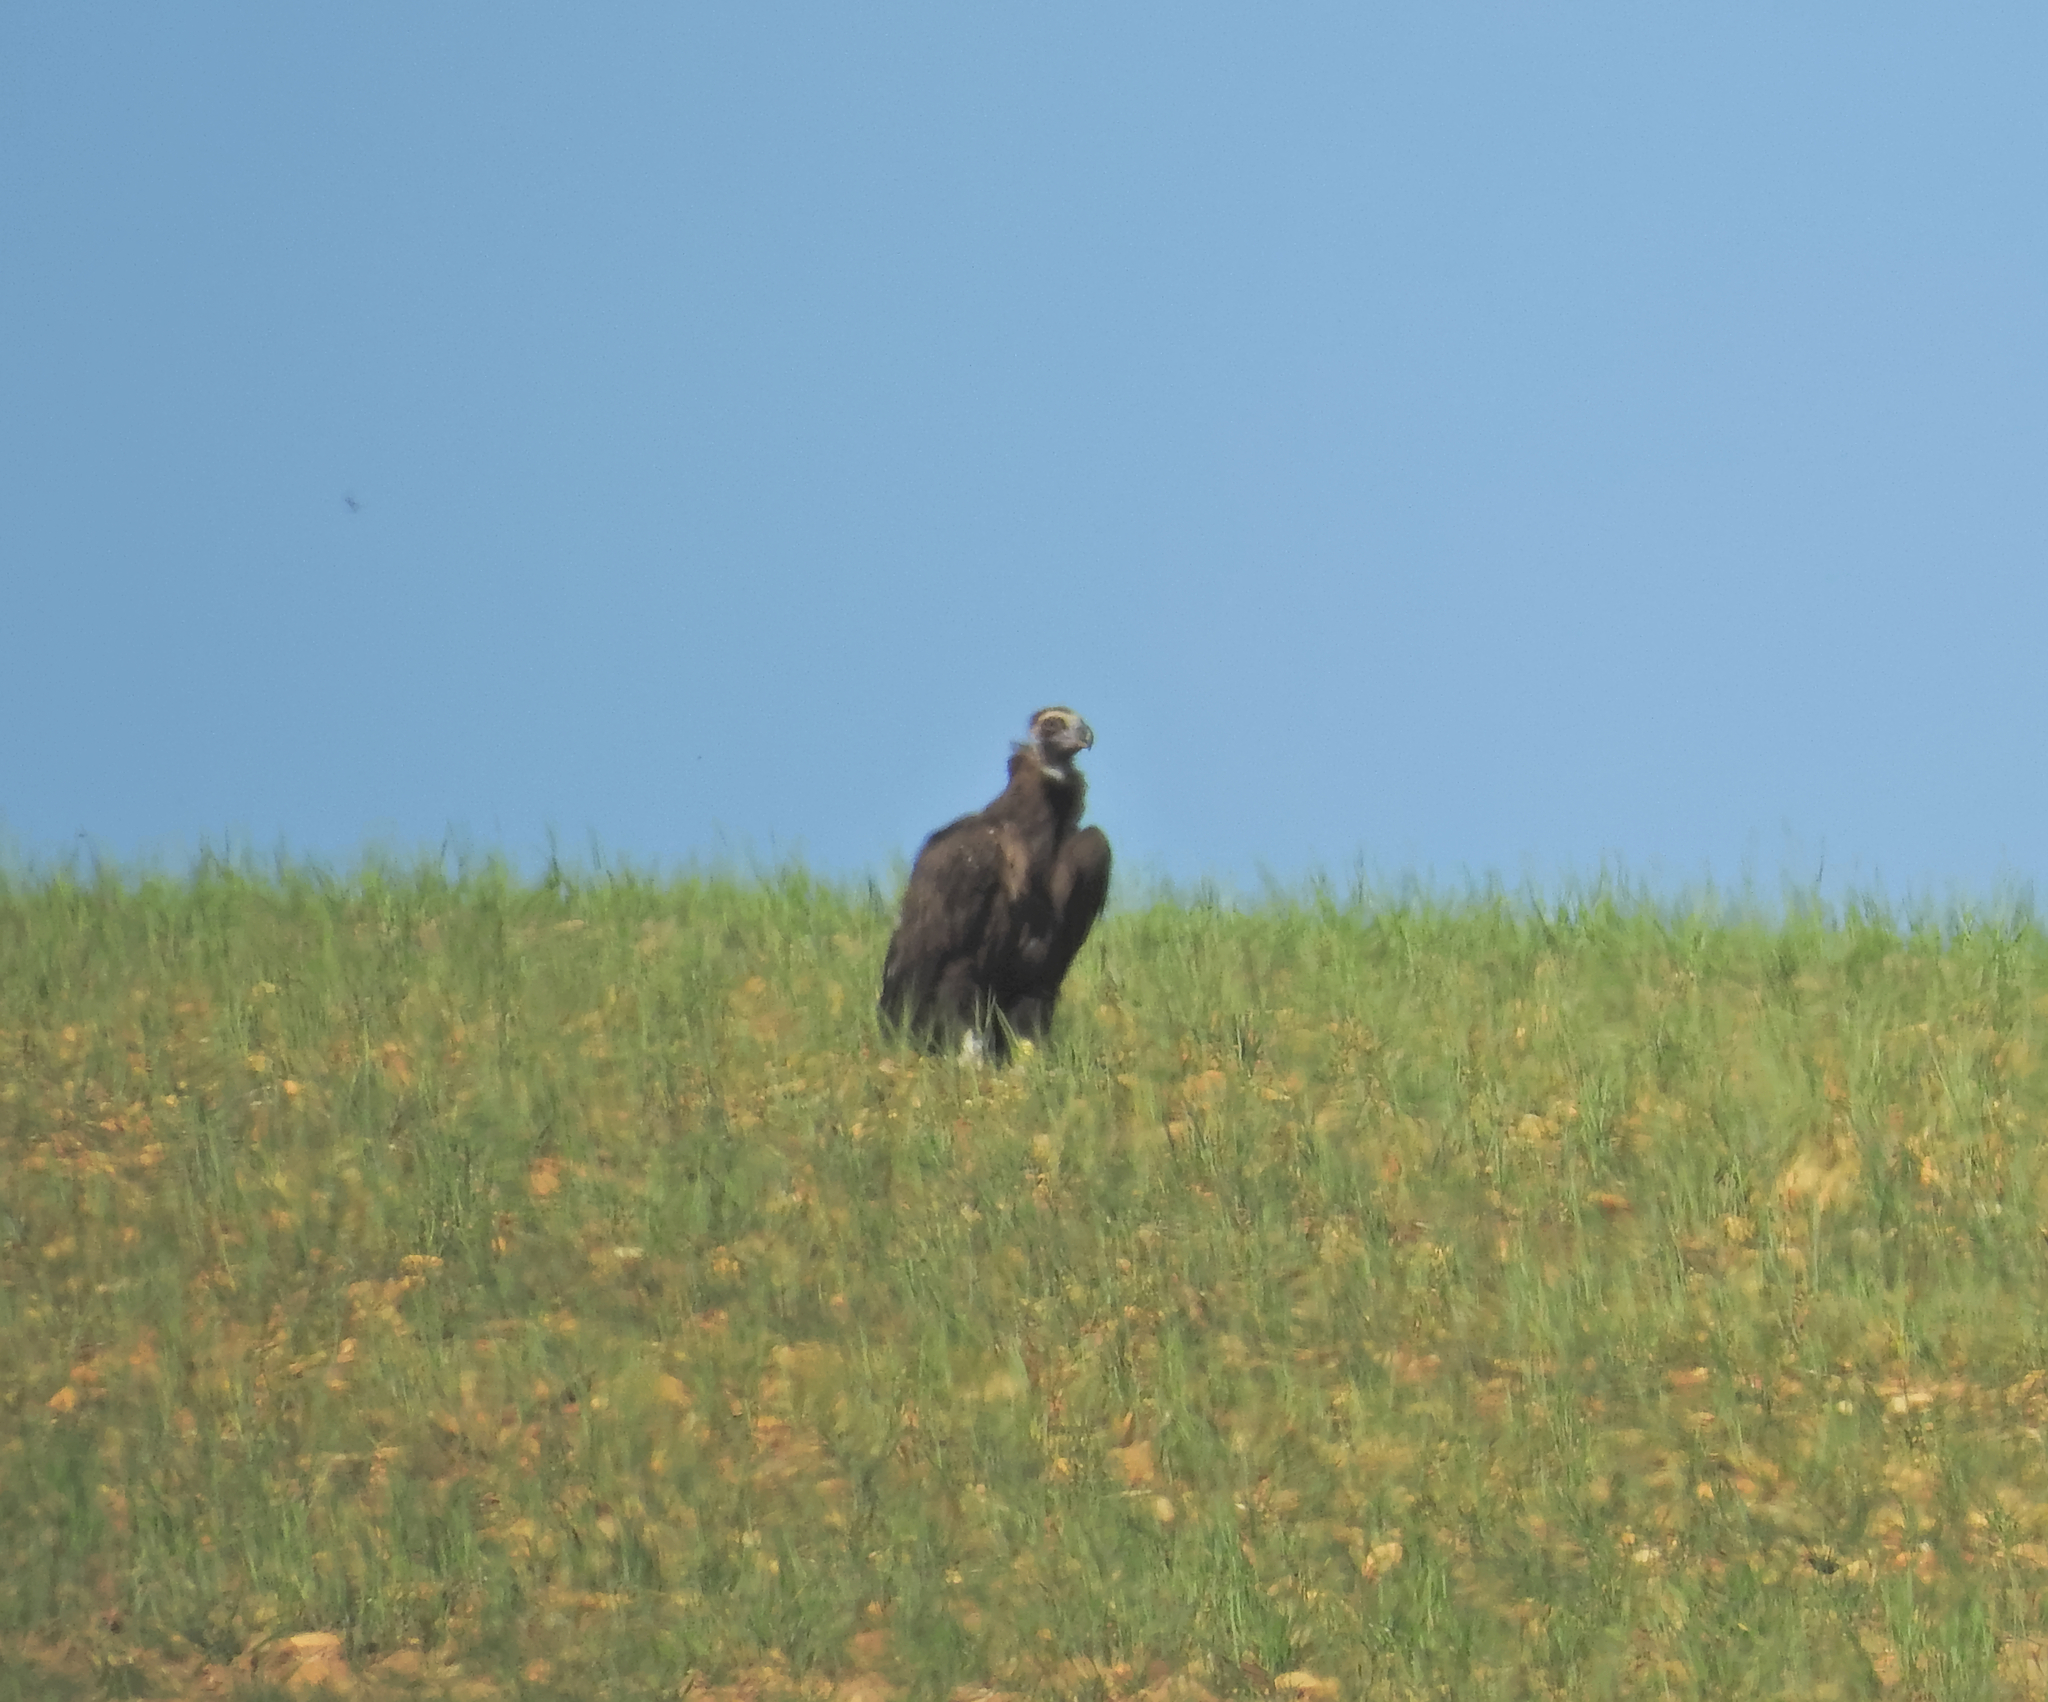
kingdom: Animalia
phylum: Chordata
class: Aves
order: Accipitriformes
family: Accipitridae
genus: Aegypius
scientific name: Aegypius monachus
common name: Cinereous vulture
